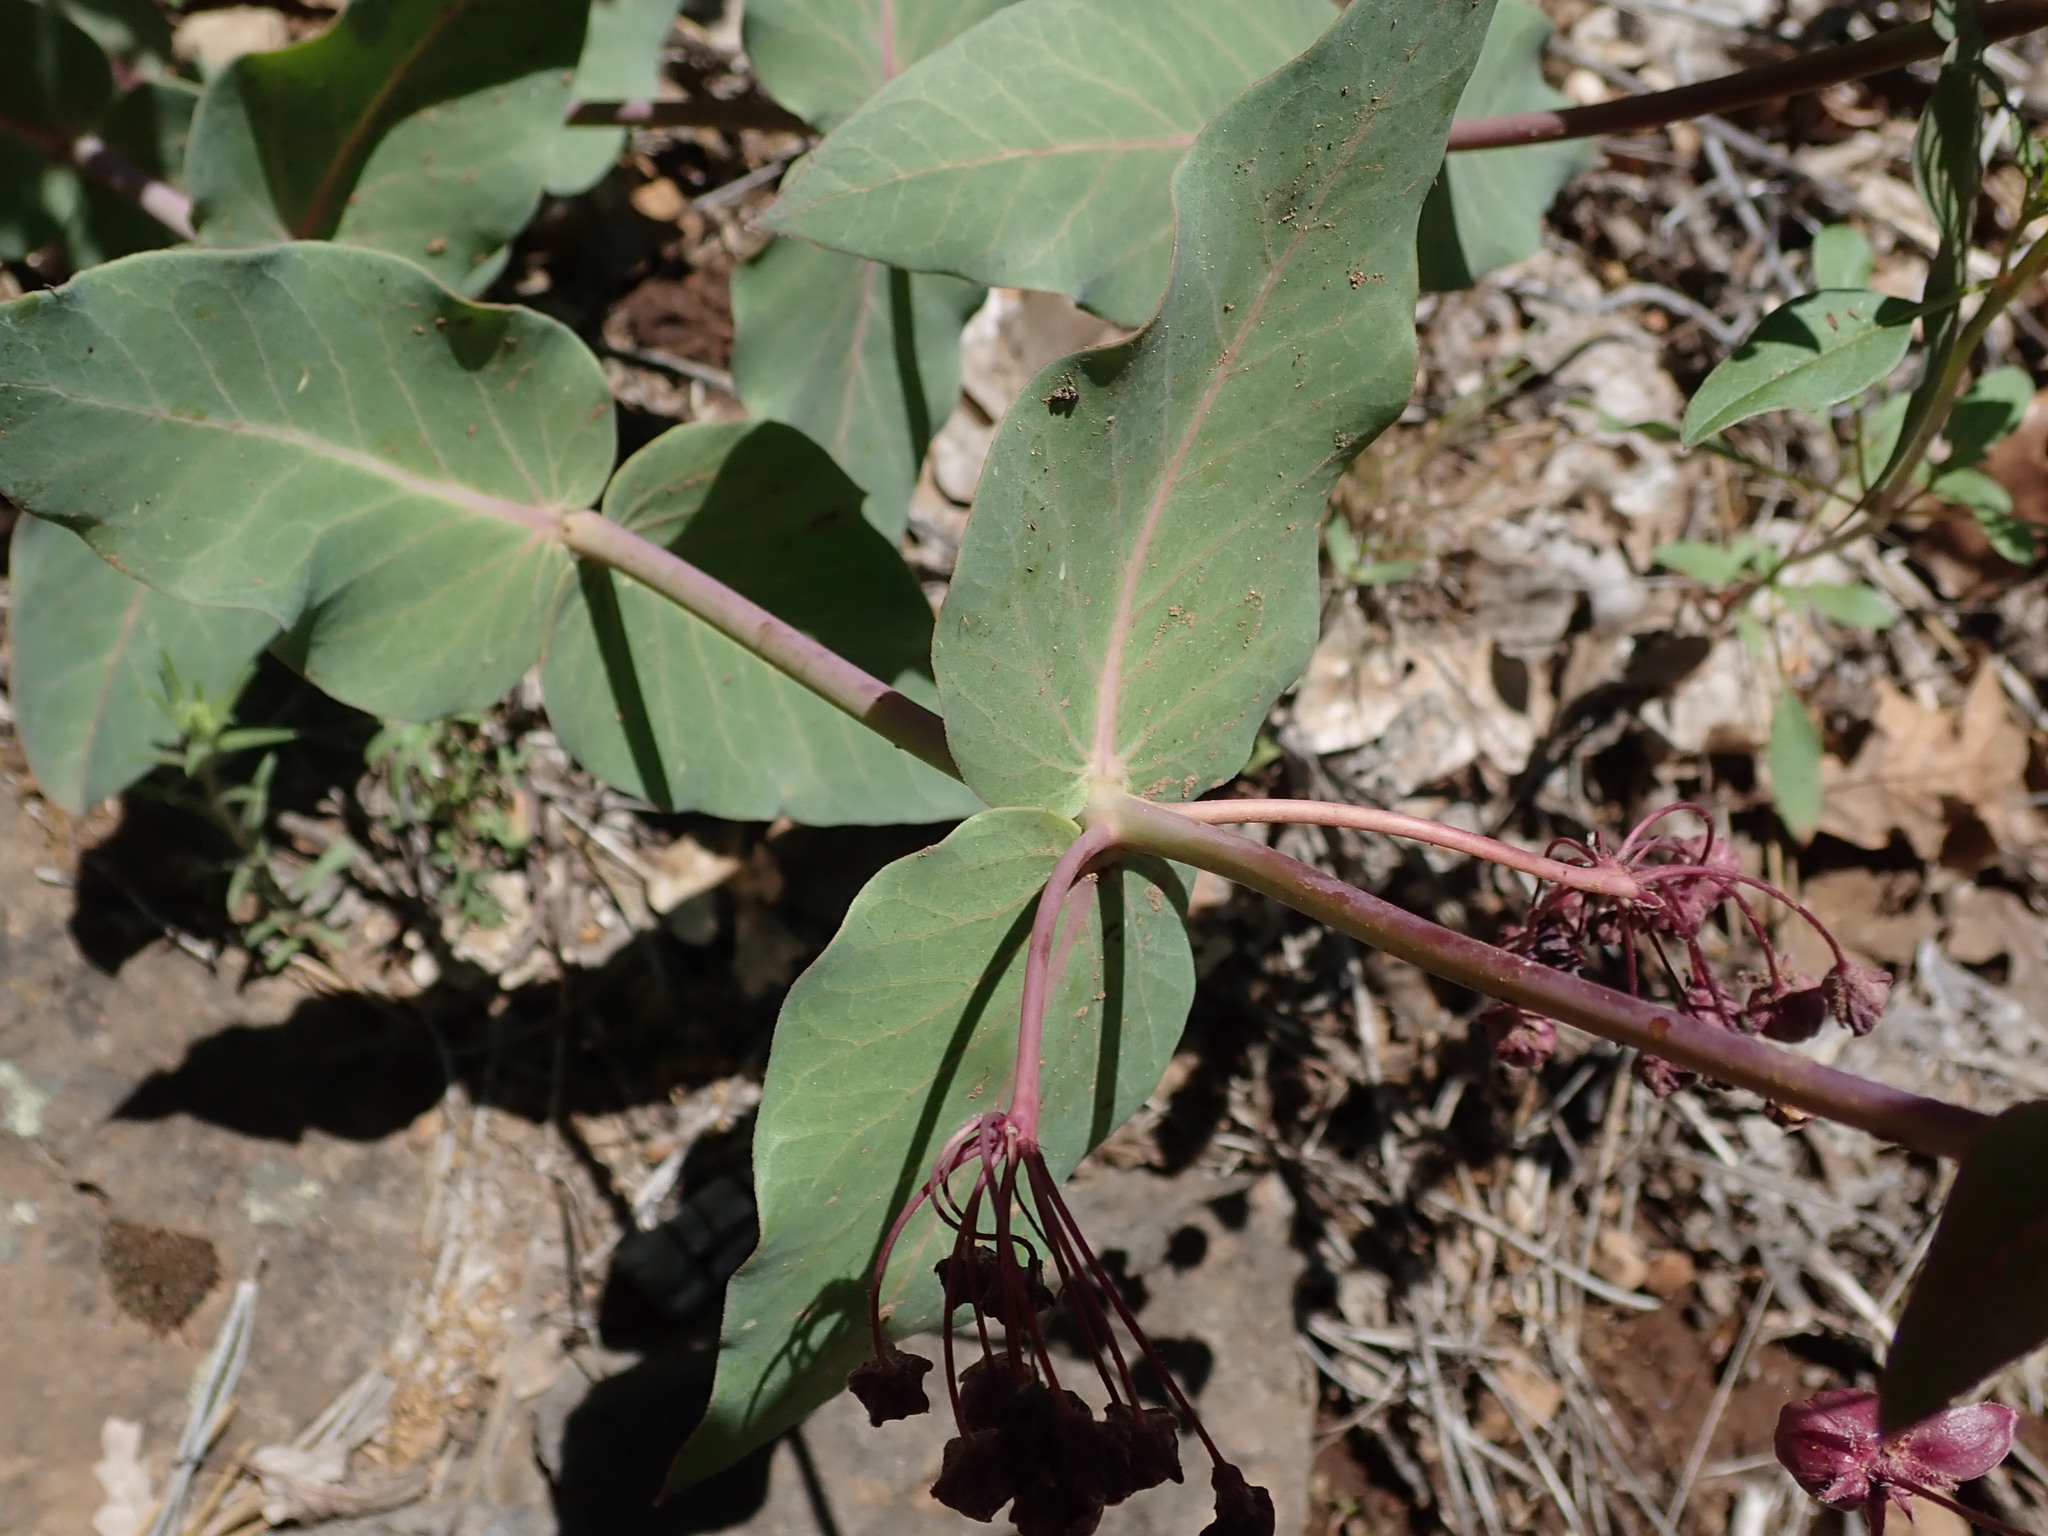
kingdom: Plantae
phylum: Tracheophyta
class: Magnoliopsida
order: Gentianales
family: Apocynaceae
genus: Asclepias
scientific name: Asclepias cordifolia
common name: Purple milkweed
